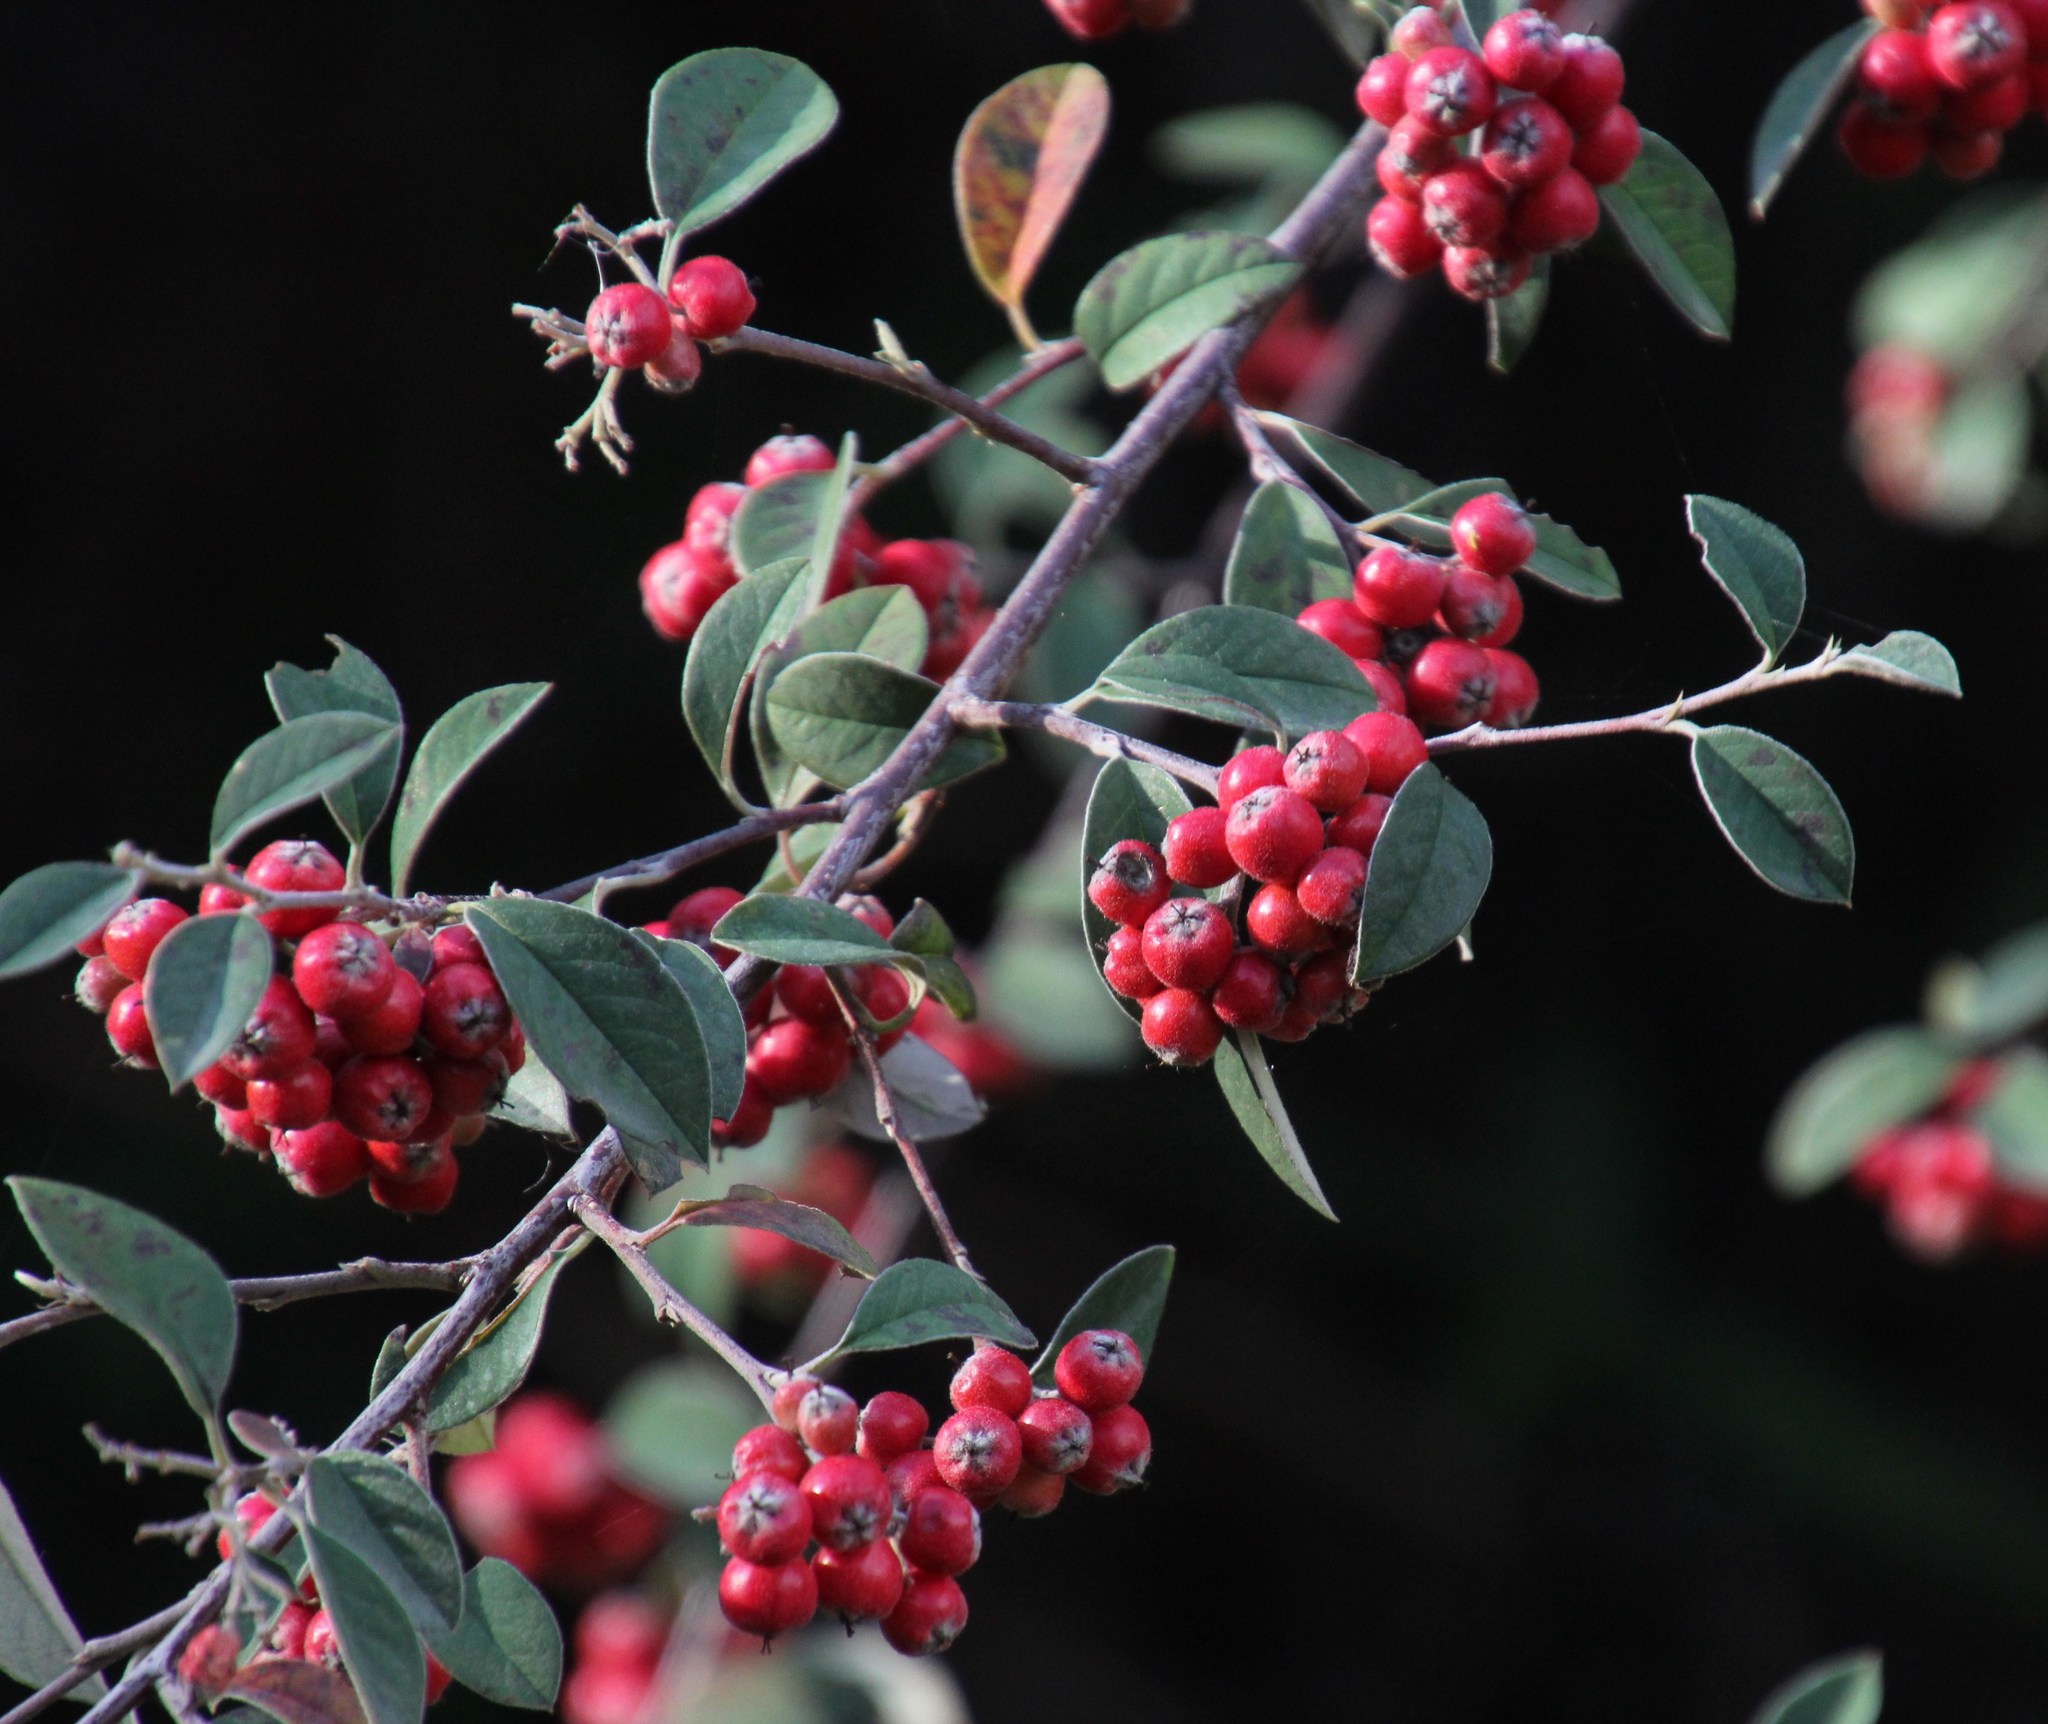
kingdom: Plantae
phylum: Tracheophyta
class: Magnoliopsida
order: Rosales
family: Rosaceae
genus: Cotoneaster
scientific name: Cotoneaster pannosus
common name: Silverleaf cotoneaster
